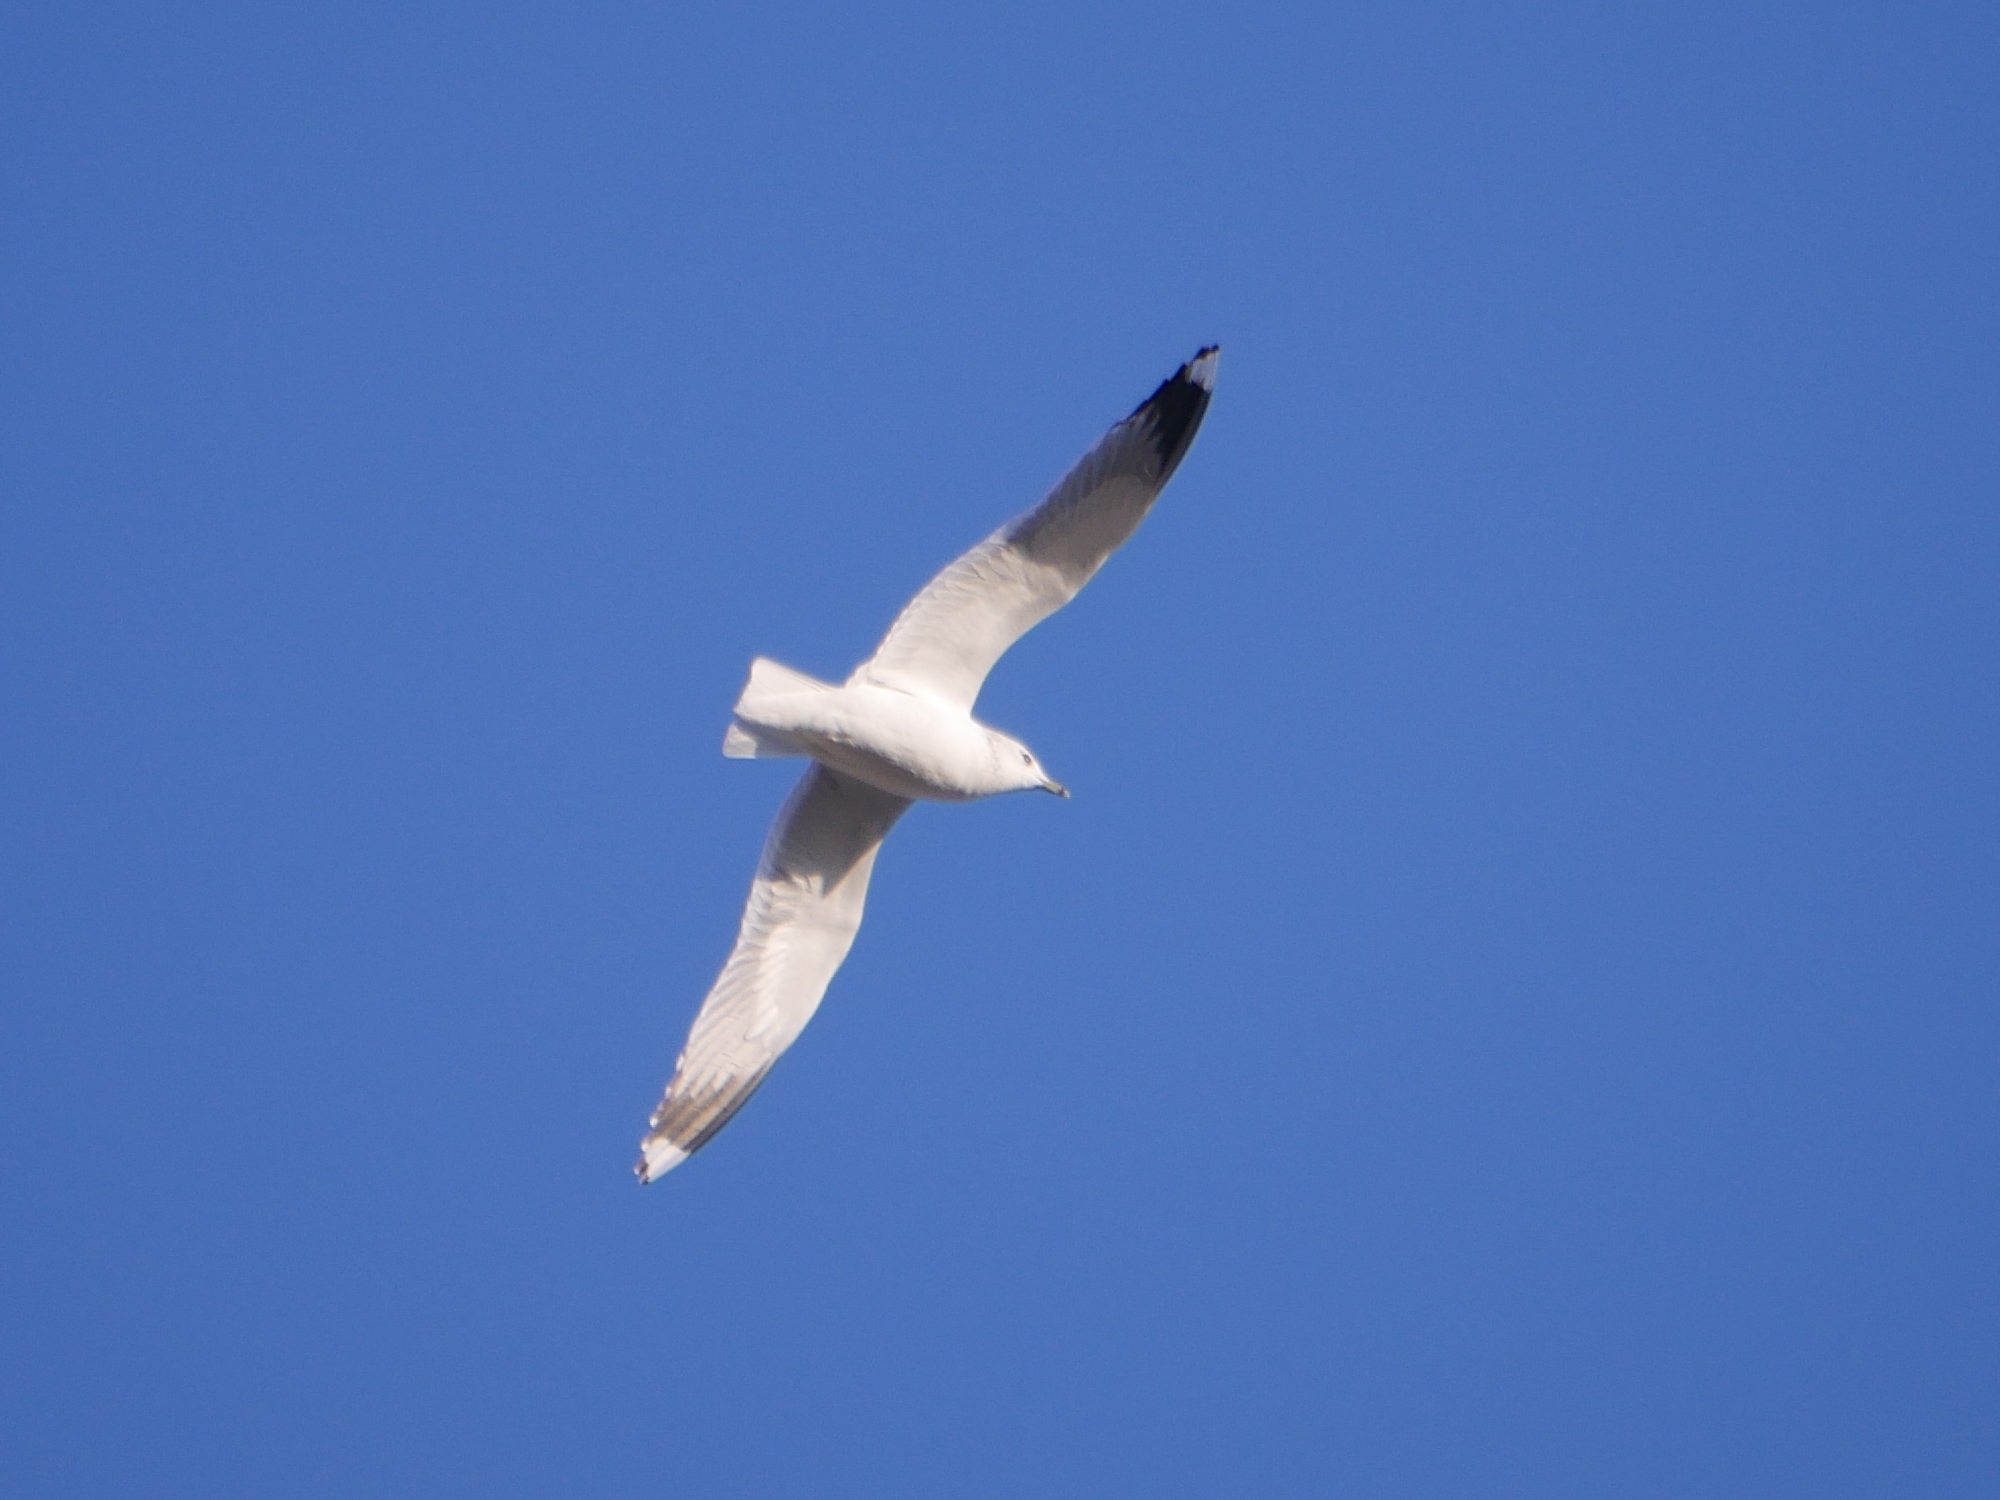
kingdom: Animalia
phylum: Chordata
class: Aves
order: Charadriiformes
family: Laridae
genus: Larus
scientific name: Larus canus
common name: Mew gull
